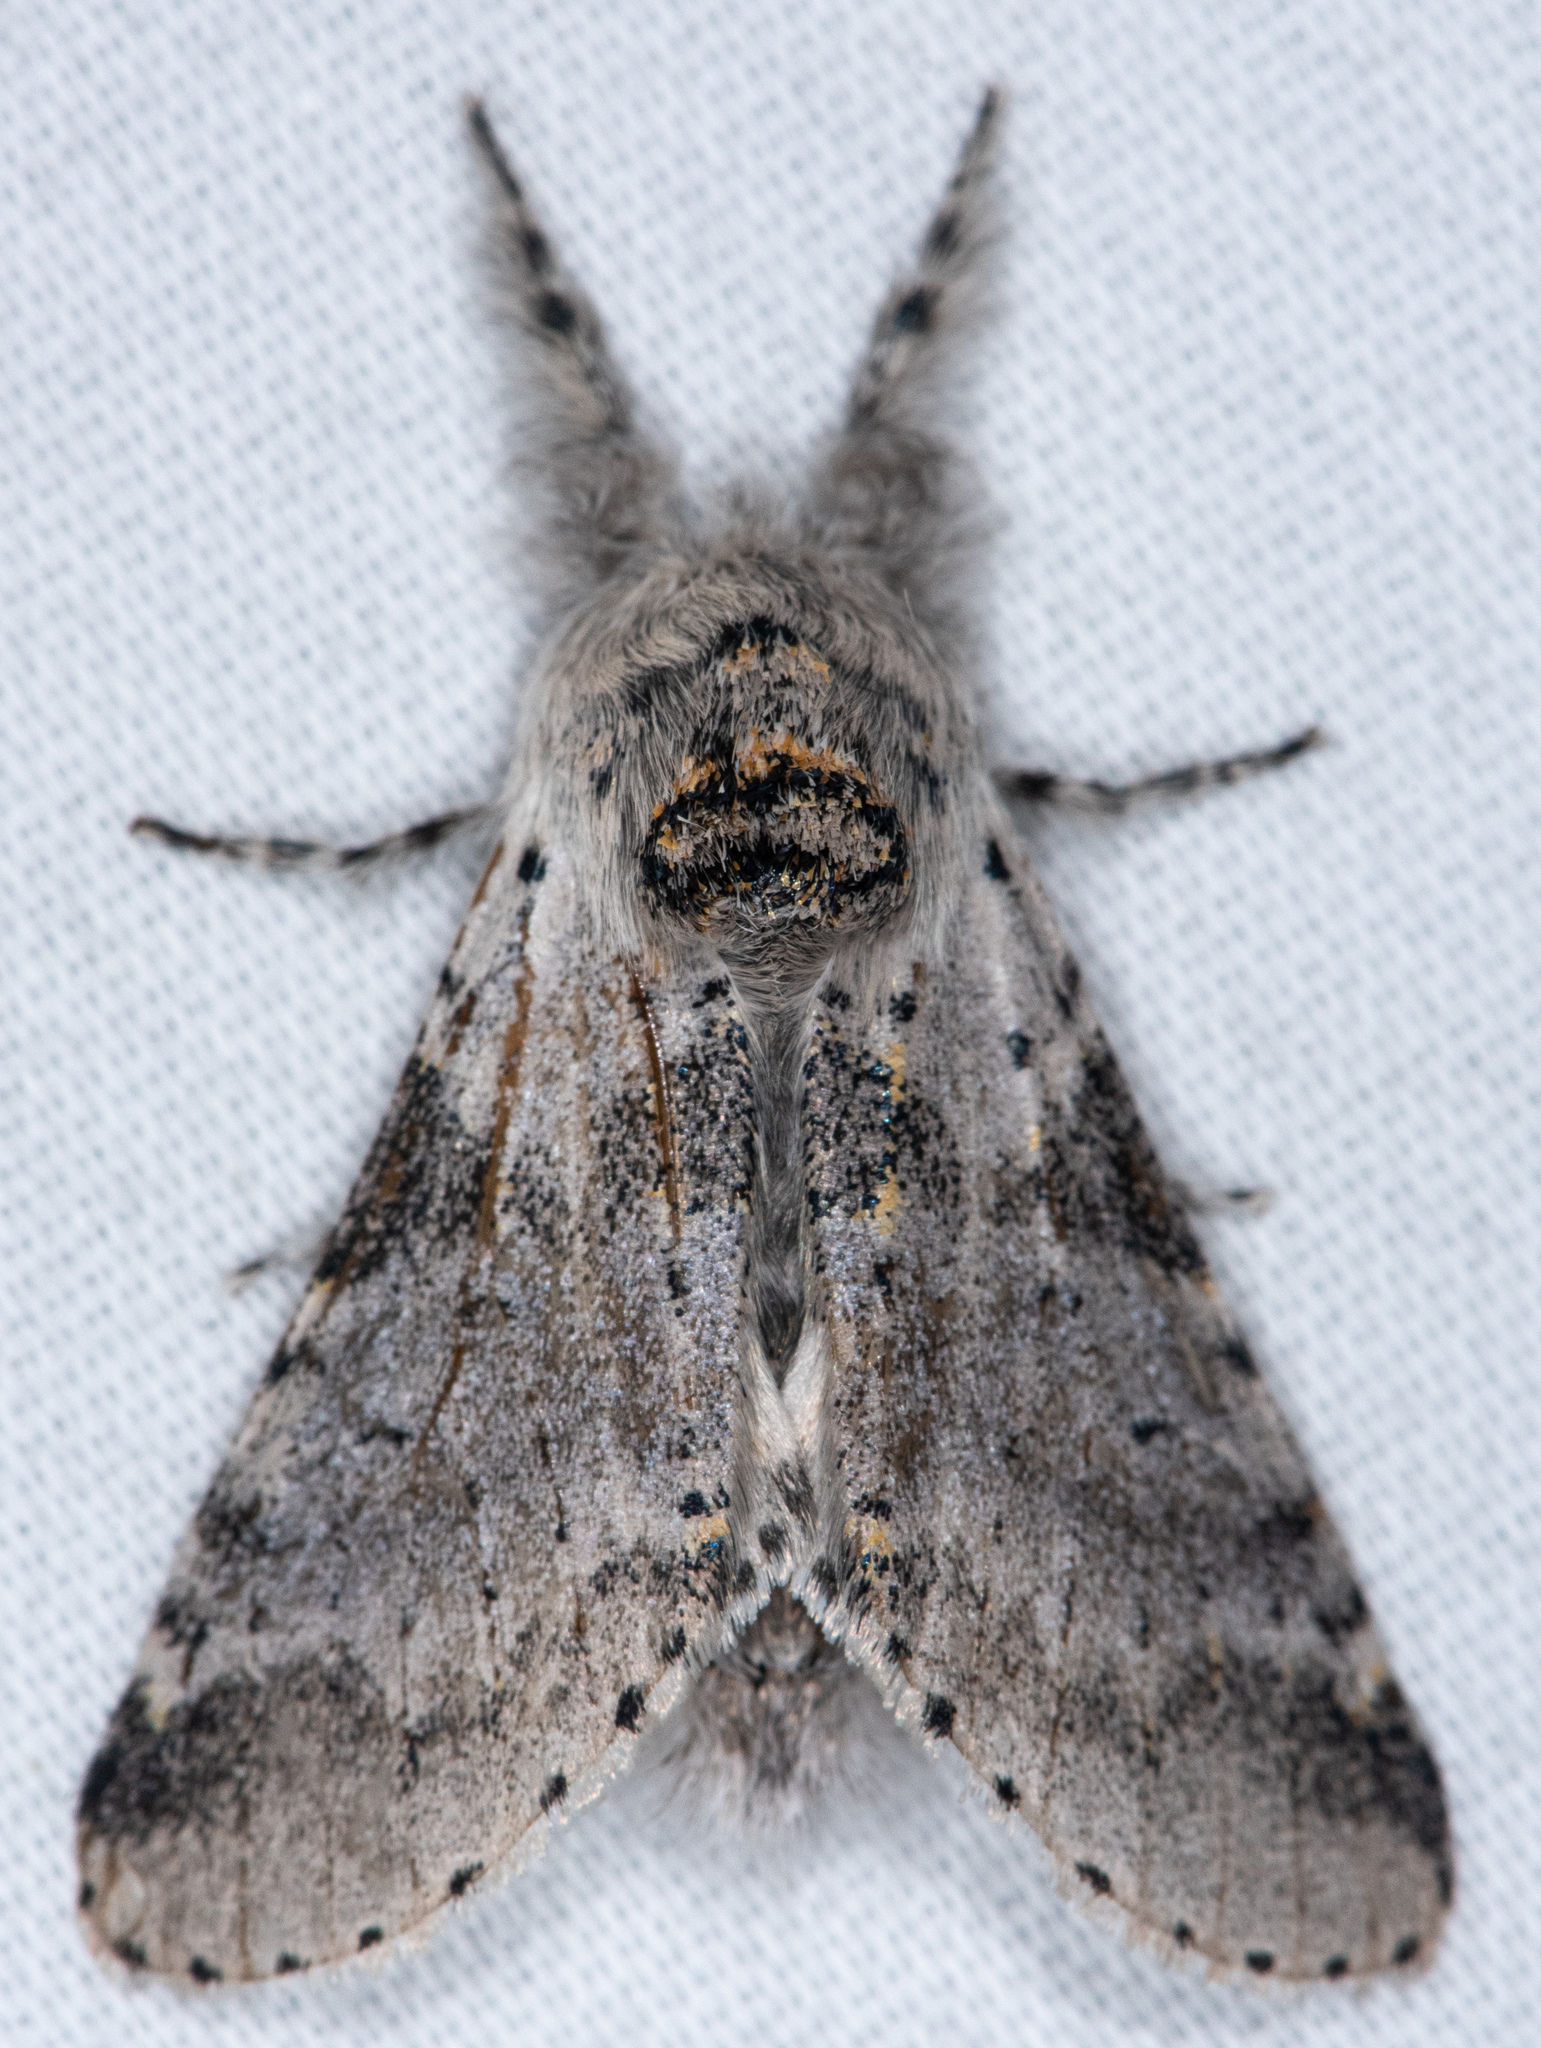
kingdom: Animalia
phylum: Arthropoda
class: Insecta
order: Lepidoptera
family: Notodontidae
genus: Furcula
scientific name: Furcula cinerea
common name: Gray furcula
